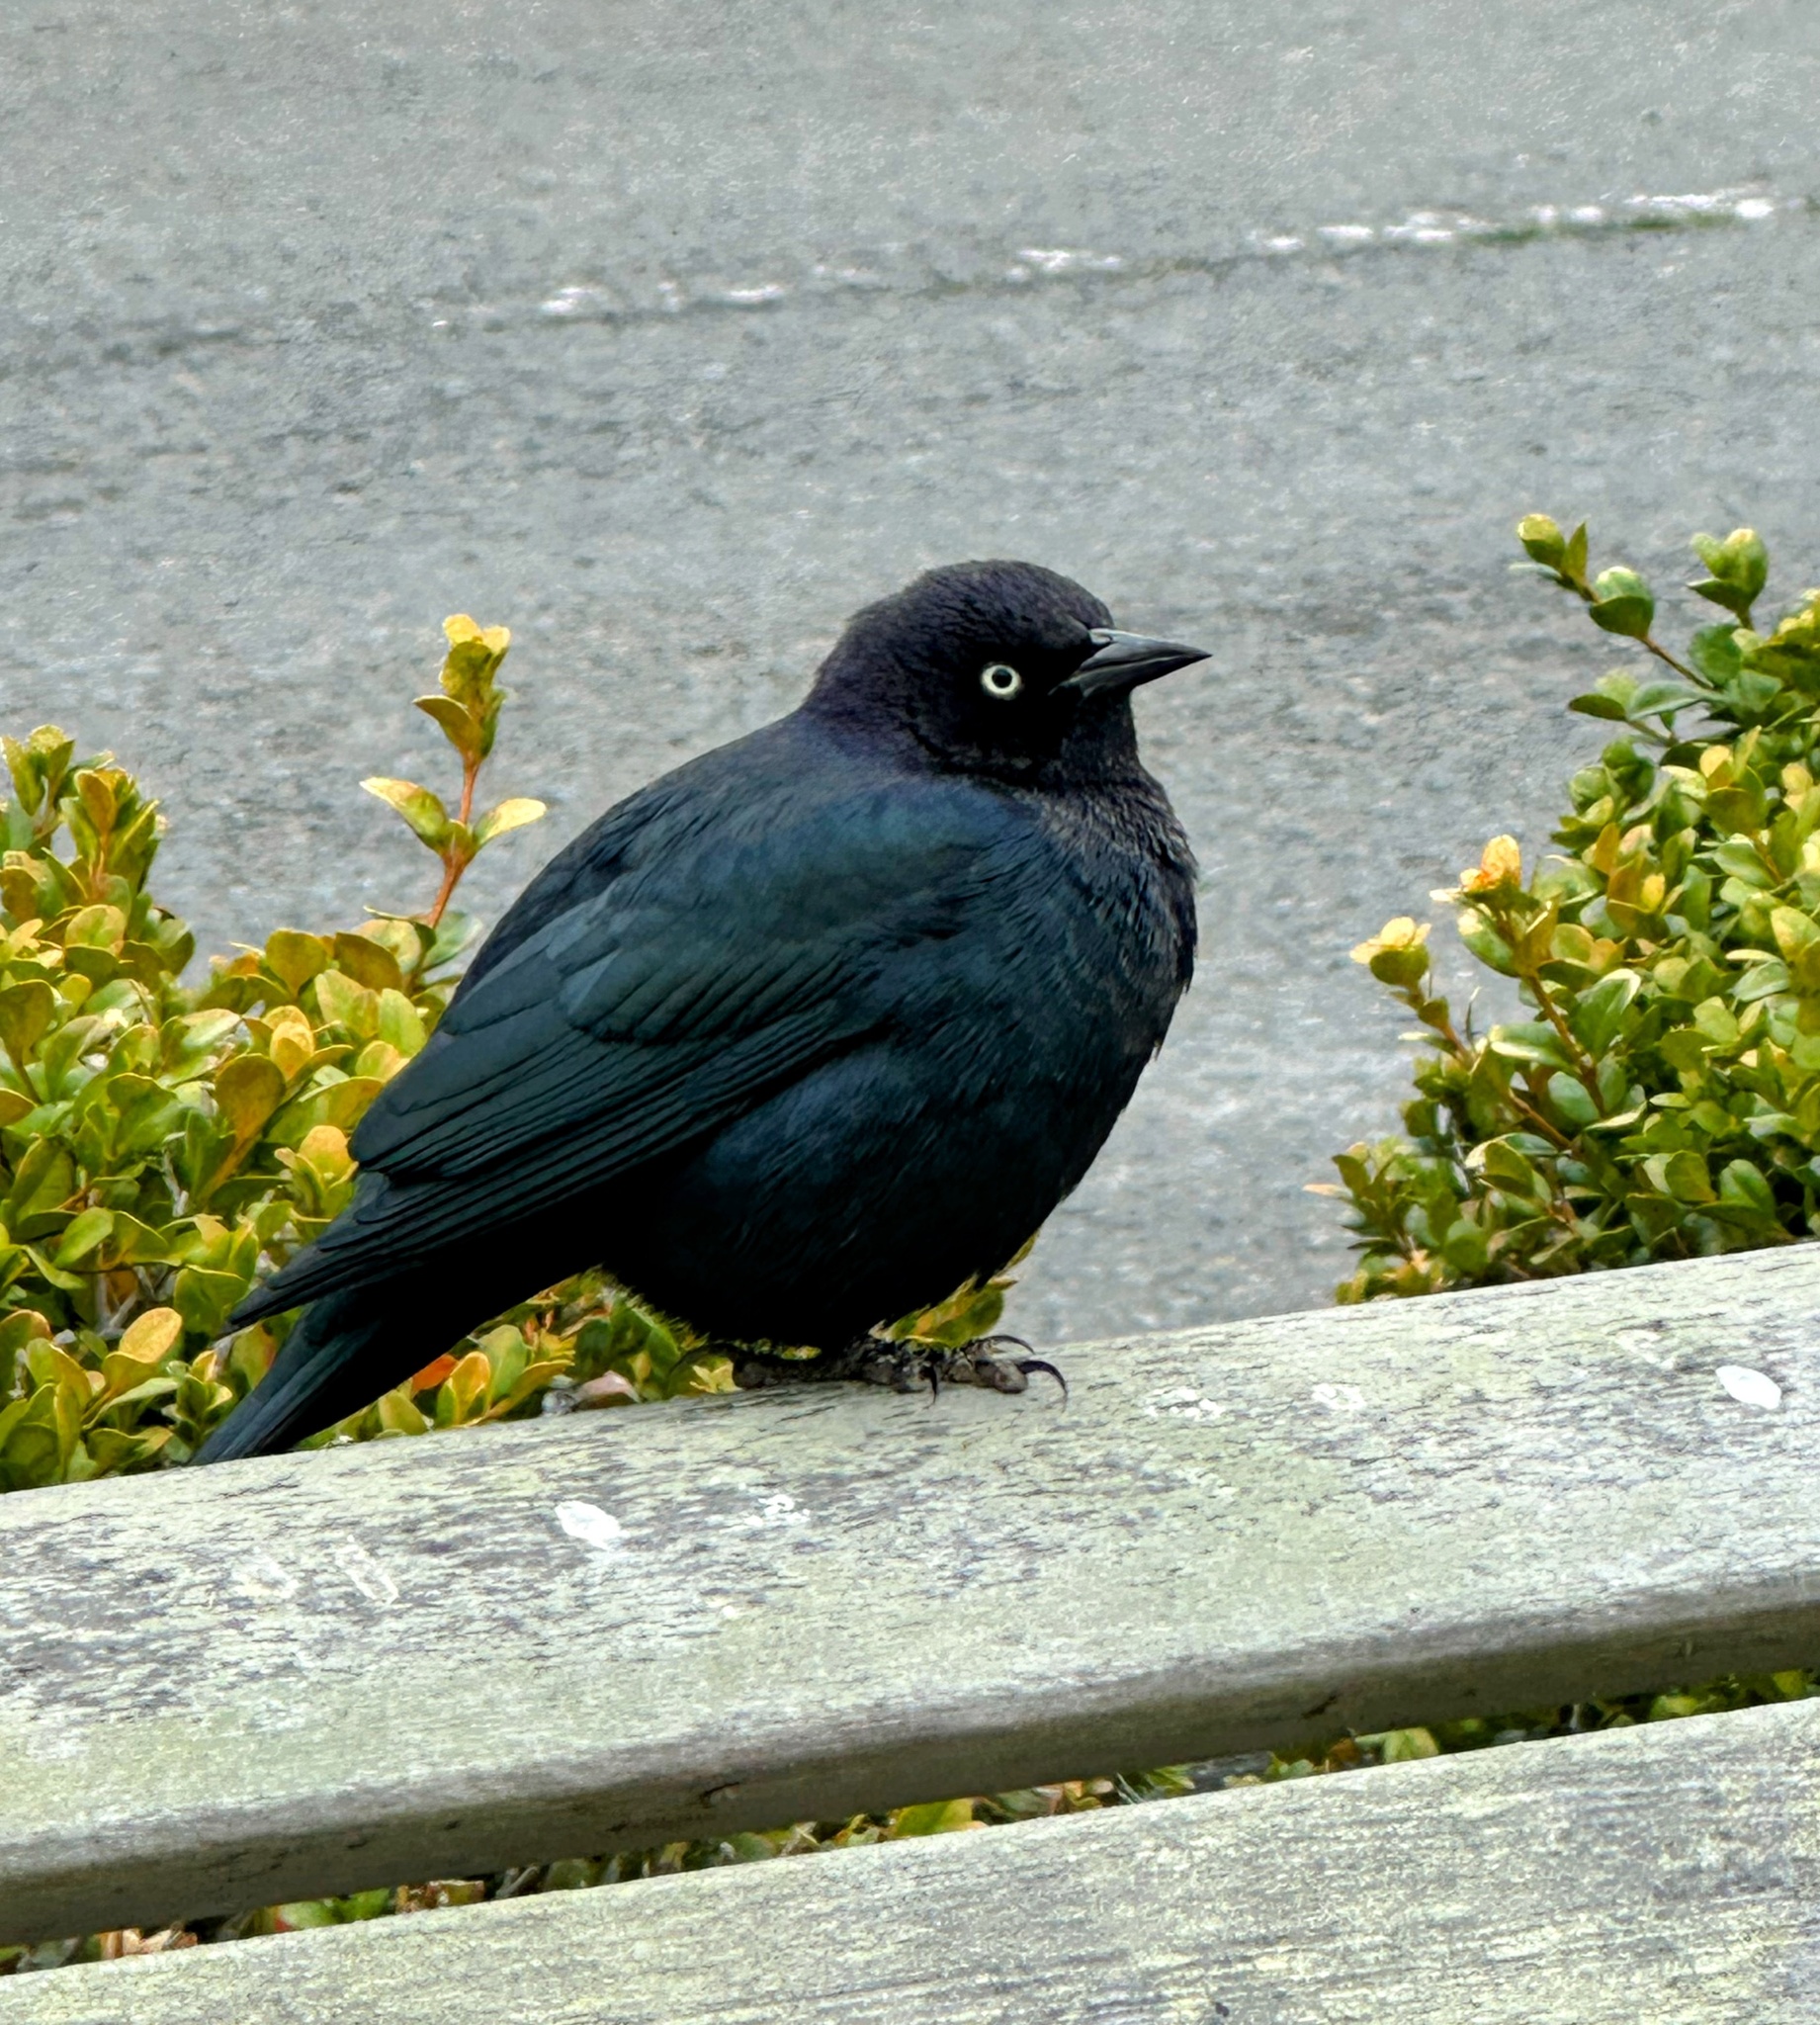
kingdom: Animalia
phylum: Chordata
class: Aves
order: Passeriformes
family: Icteridae
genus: Euphagus
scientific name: Euphagus cyanocephalus
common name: Brewer's blackbird
